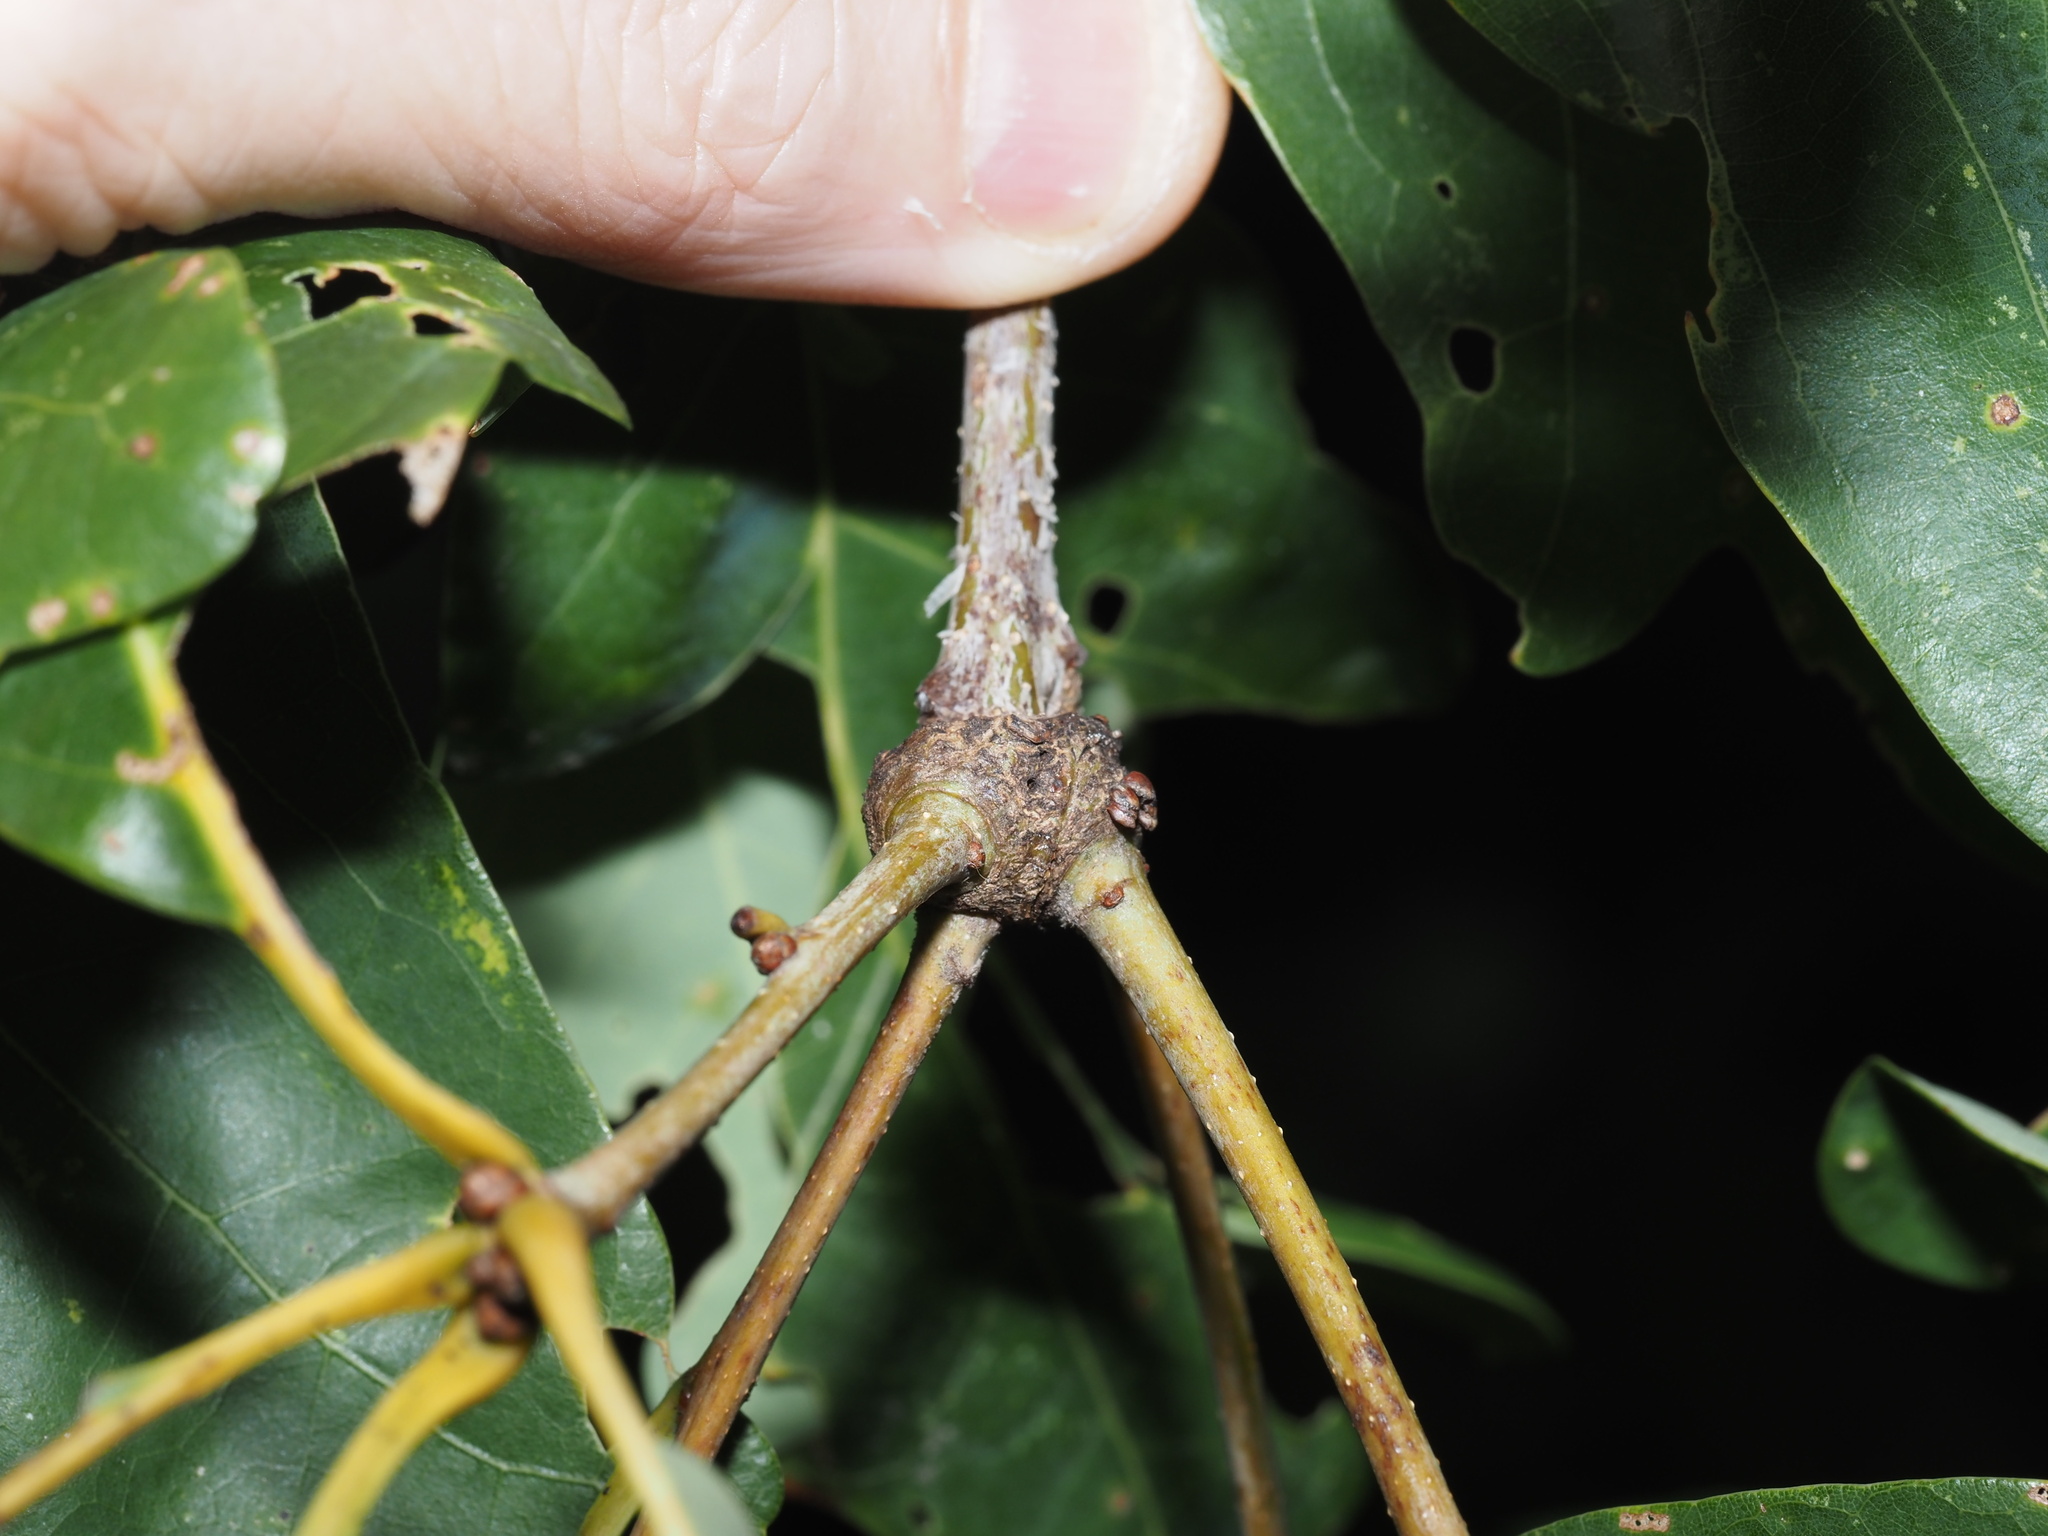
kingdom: Animalia
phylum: Arthropoda
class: Insecta
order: Hymenoptera
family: Cynipidae
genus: Loxaulus
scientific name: Loxaulus
